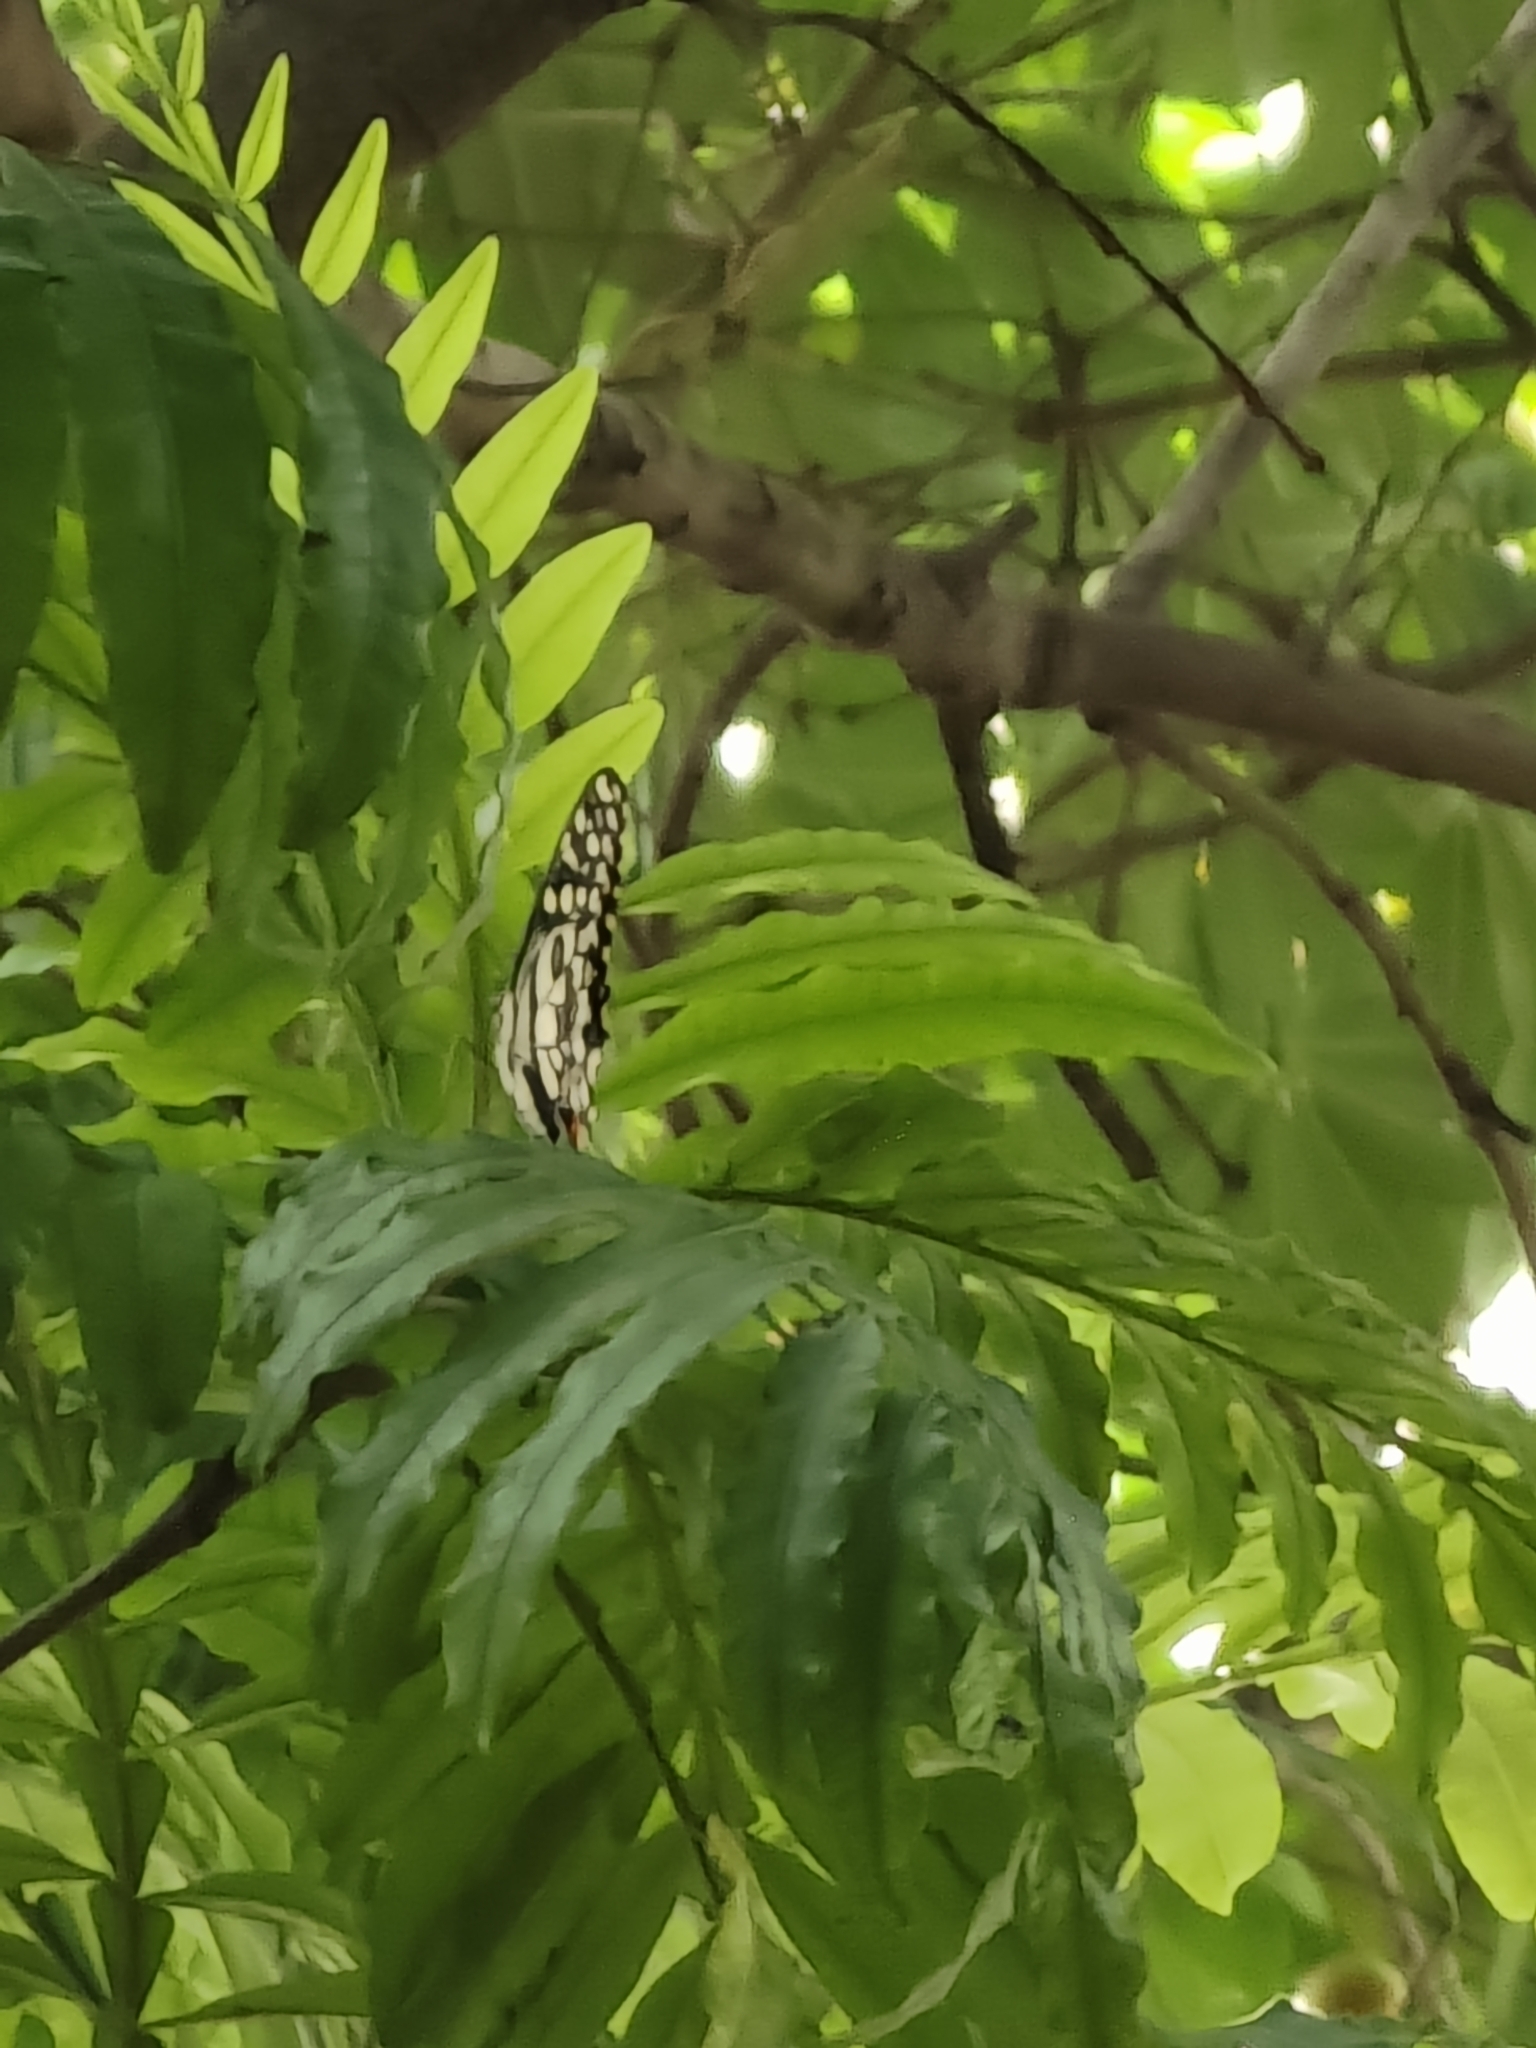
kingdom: Animalia
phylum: Arthropoda
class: Insecta
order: Lepidoptera
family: Papilionidae
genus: Papilio
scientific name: Papilio demoleus
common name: Lime butterfly
